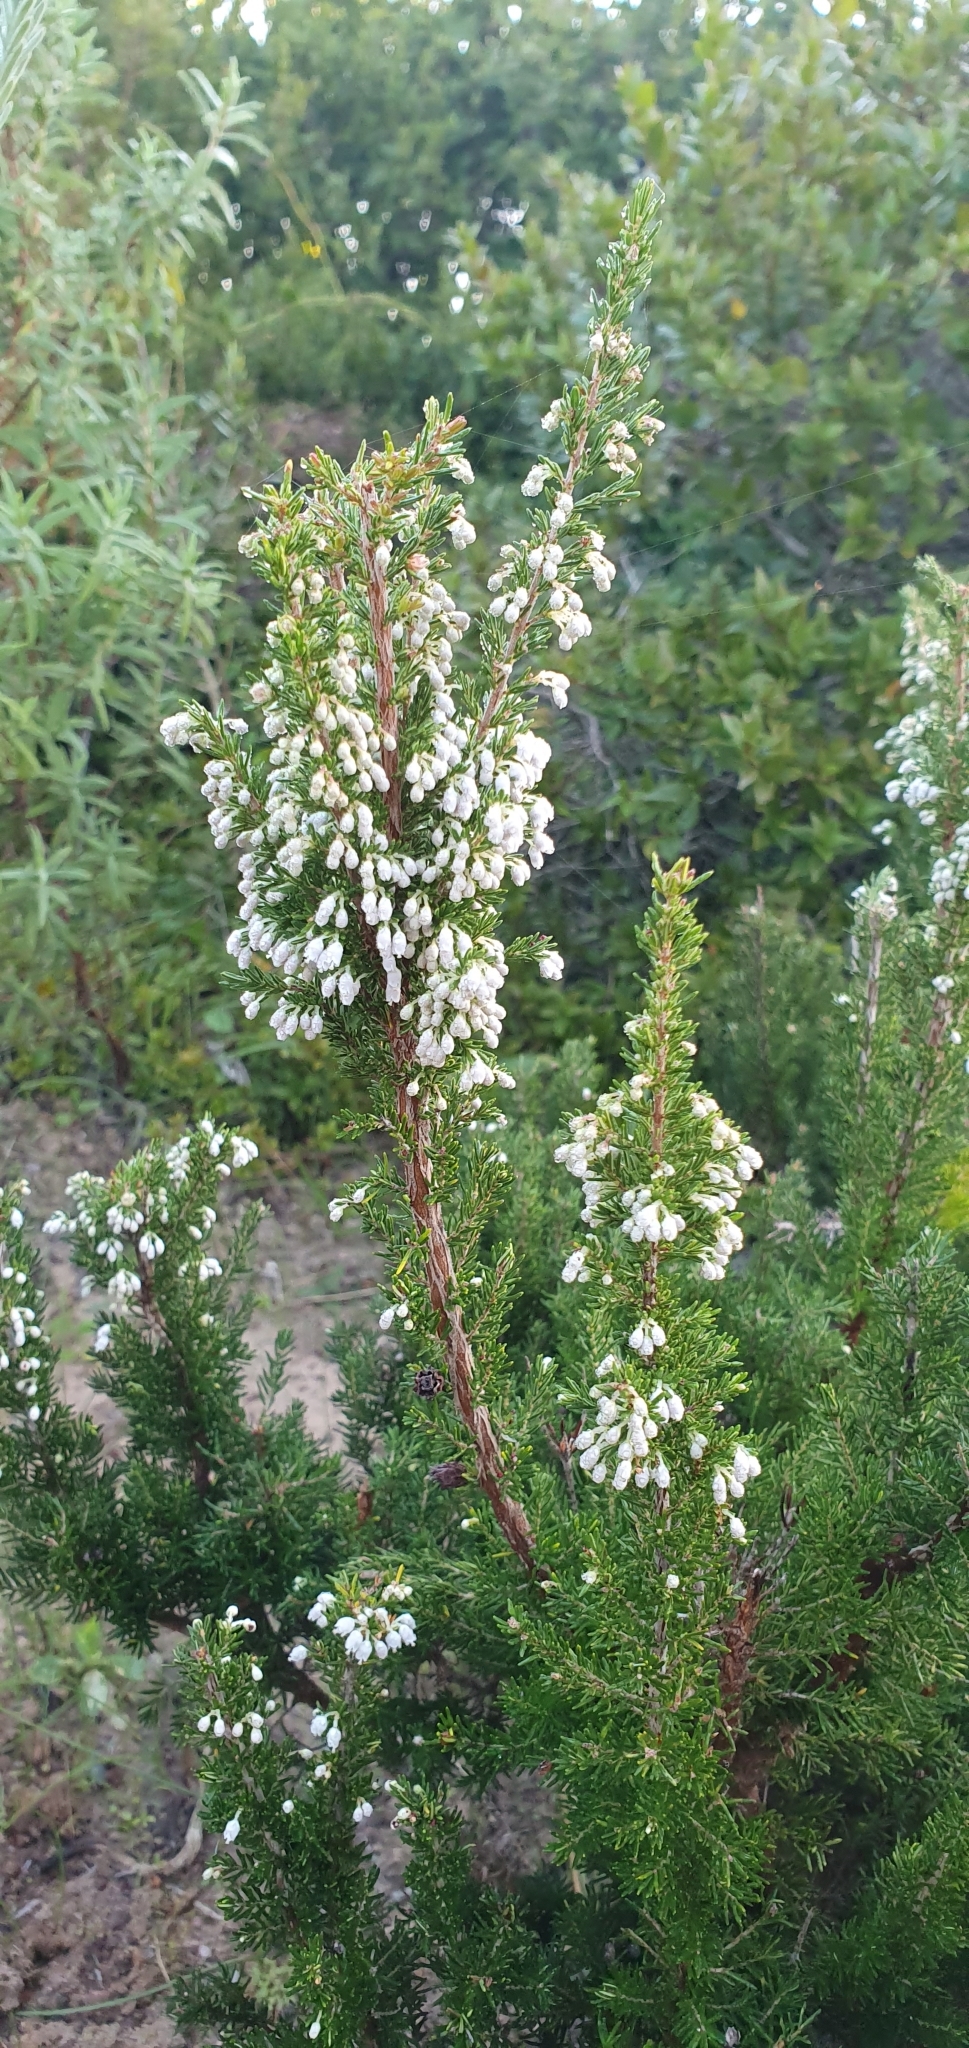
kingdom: Plantae
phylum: Tracheophyta
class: Magnoliopsida
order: Ericales
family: Ericaceae
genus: Erica
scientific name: Erica arborea
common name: Tree heath
